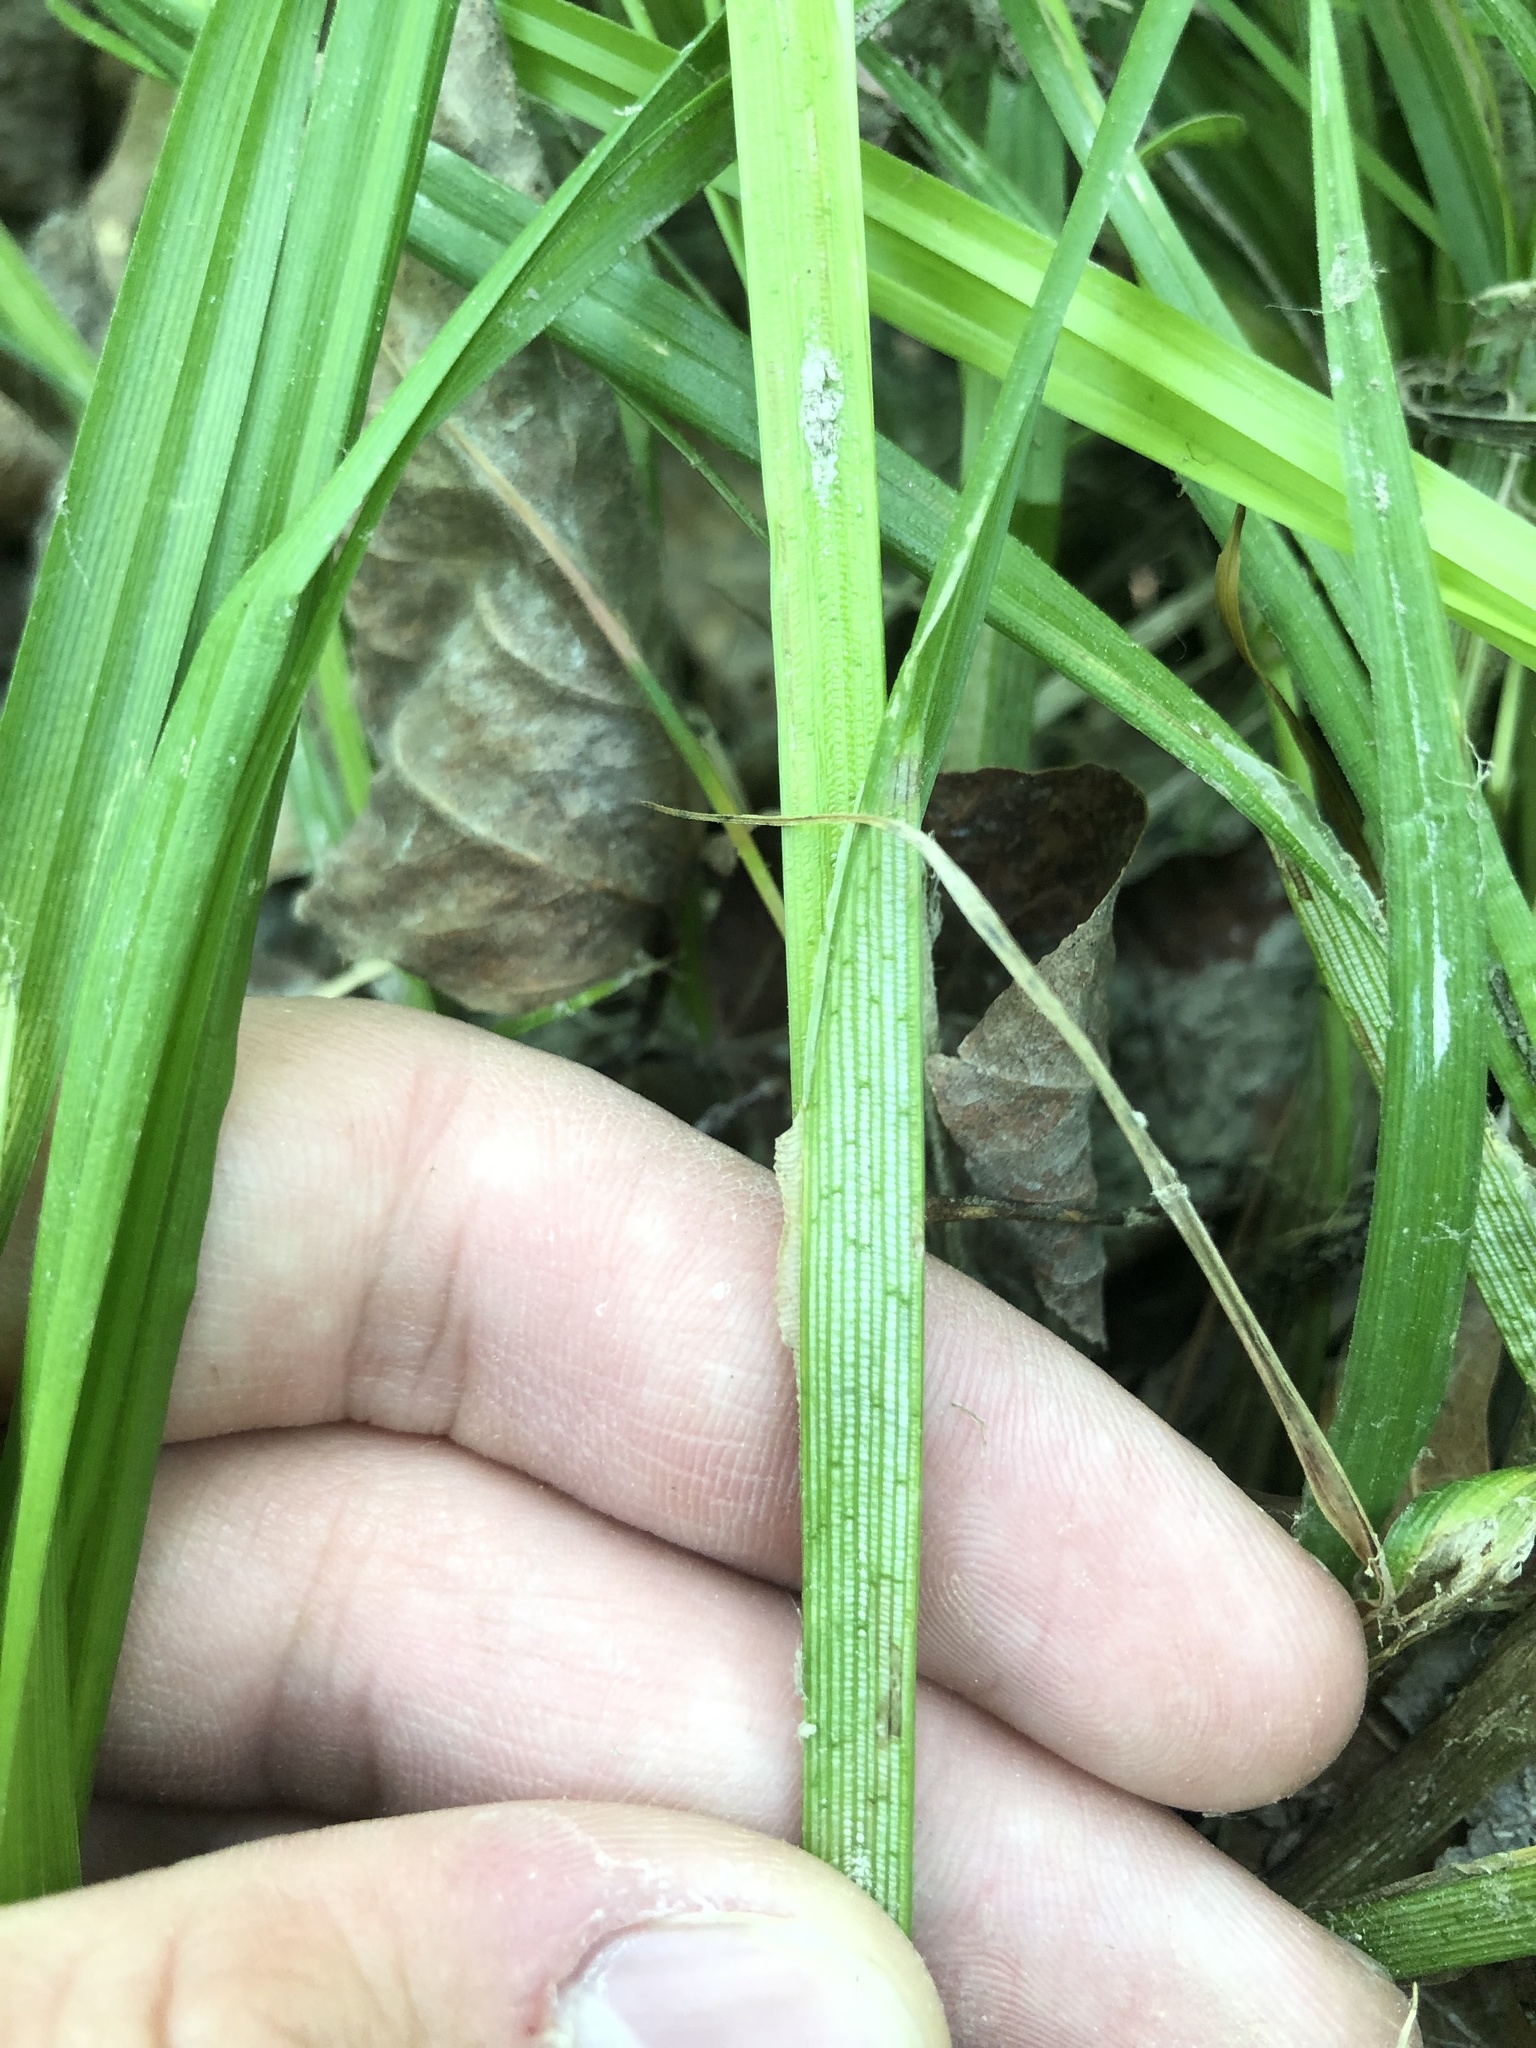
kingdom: Plantae
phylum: Tracheophyta
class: Liliopsida
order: Poales
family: Cyperaceae
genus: Carex
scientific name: Carex stipata
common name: Awl-fruited sedge
